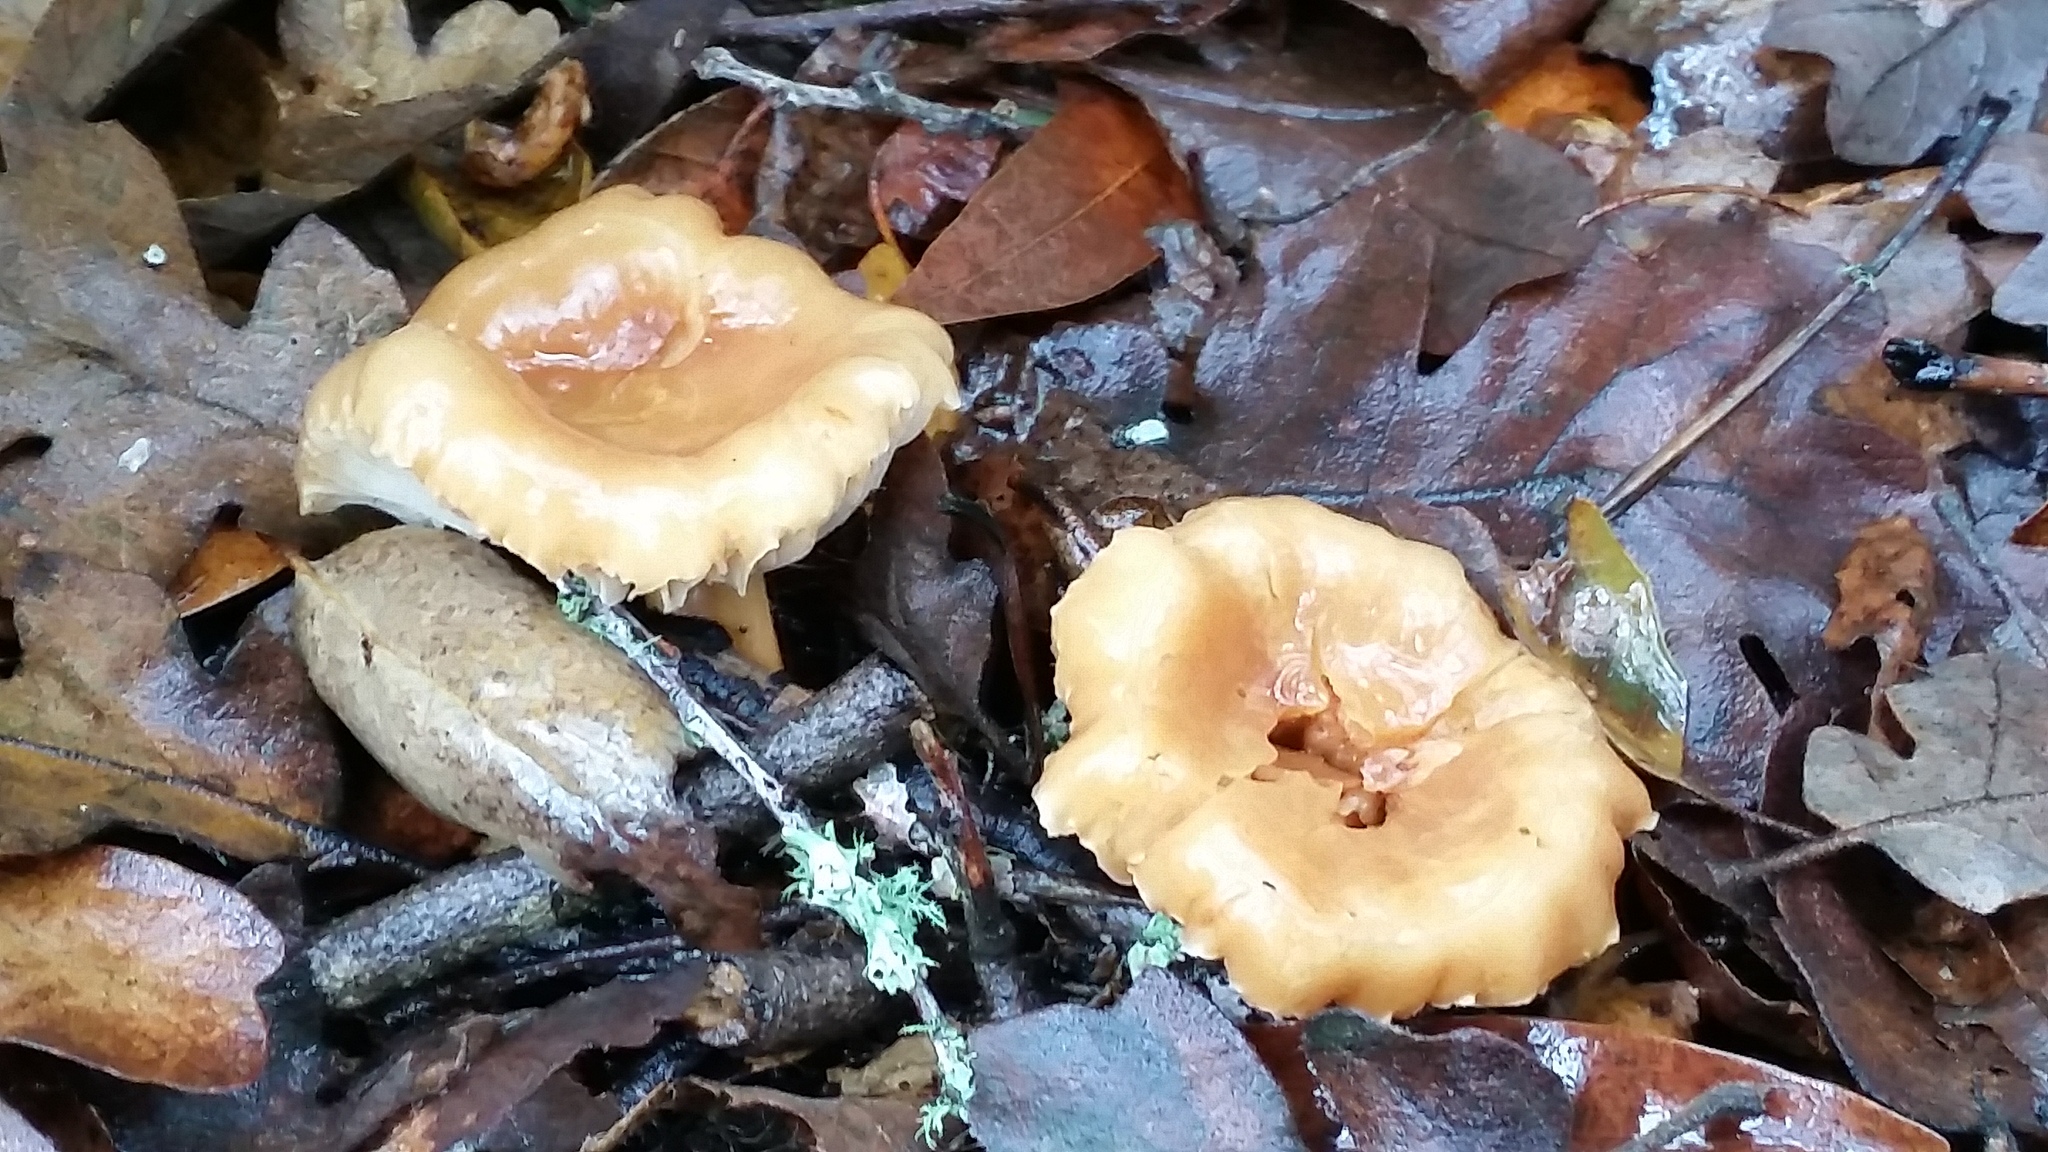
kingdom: Fungi
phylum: Basidiomycota
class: Agaricomycetes
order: Agaricales
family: Omphalotaceae
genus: Gymnopus
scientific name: Gymnopus dryophilus
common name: Penny top
